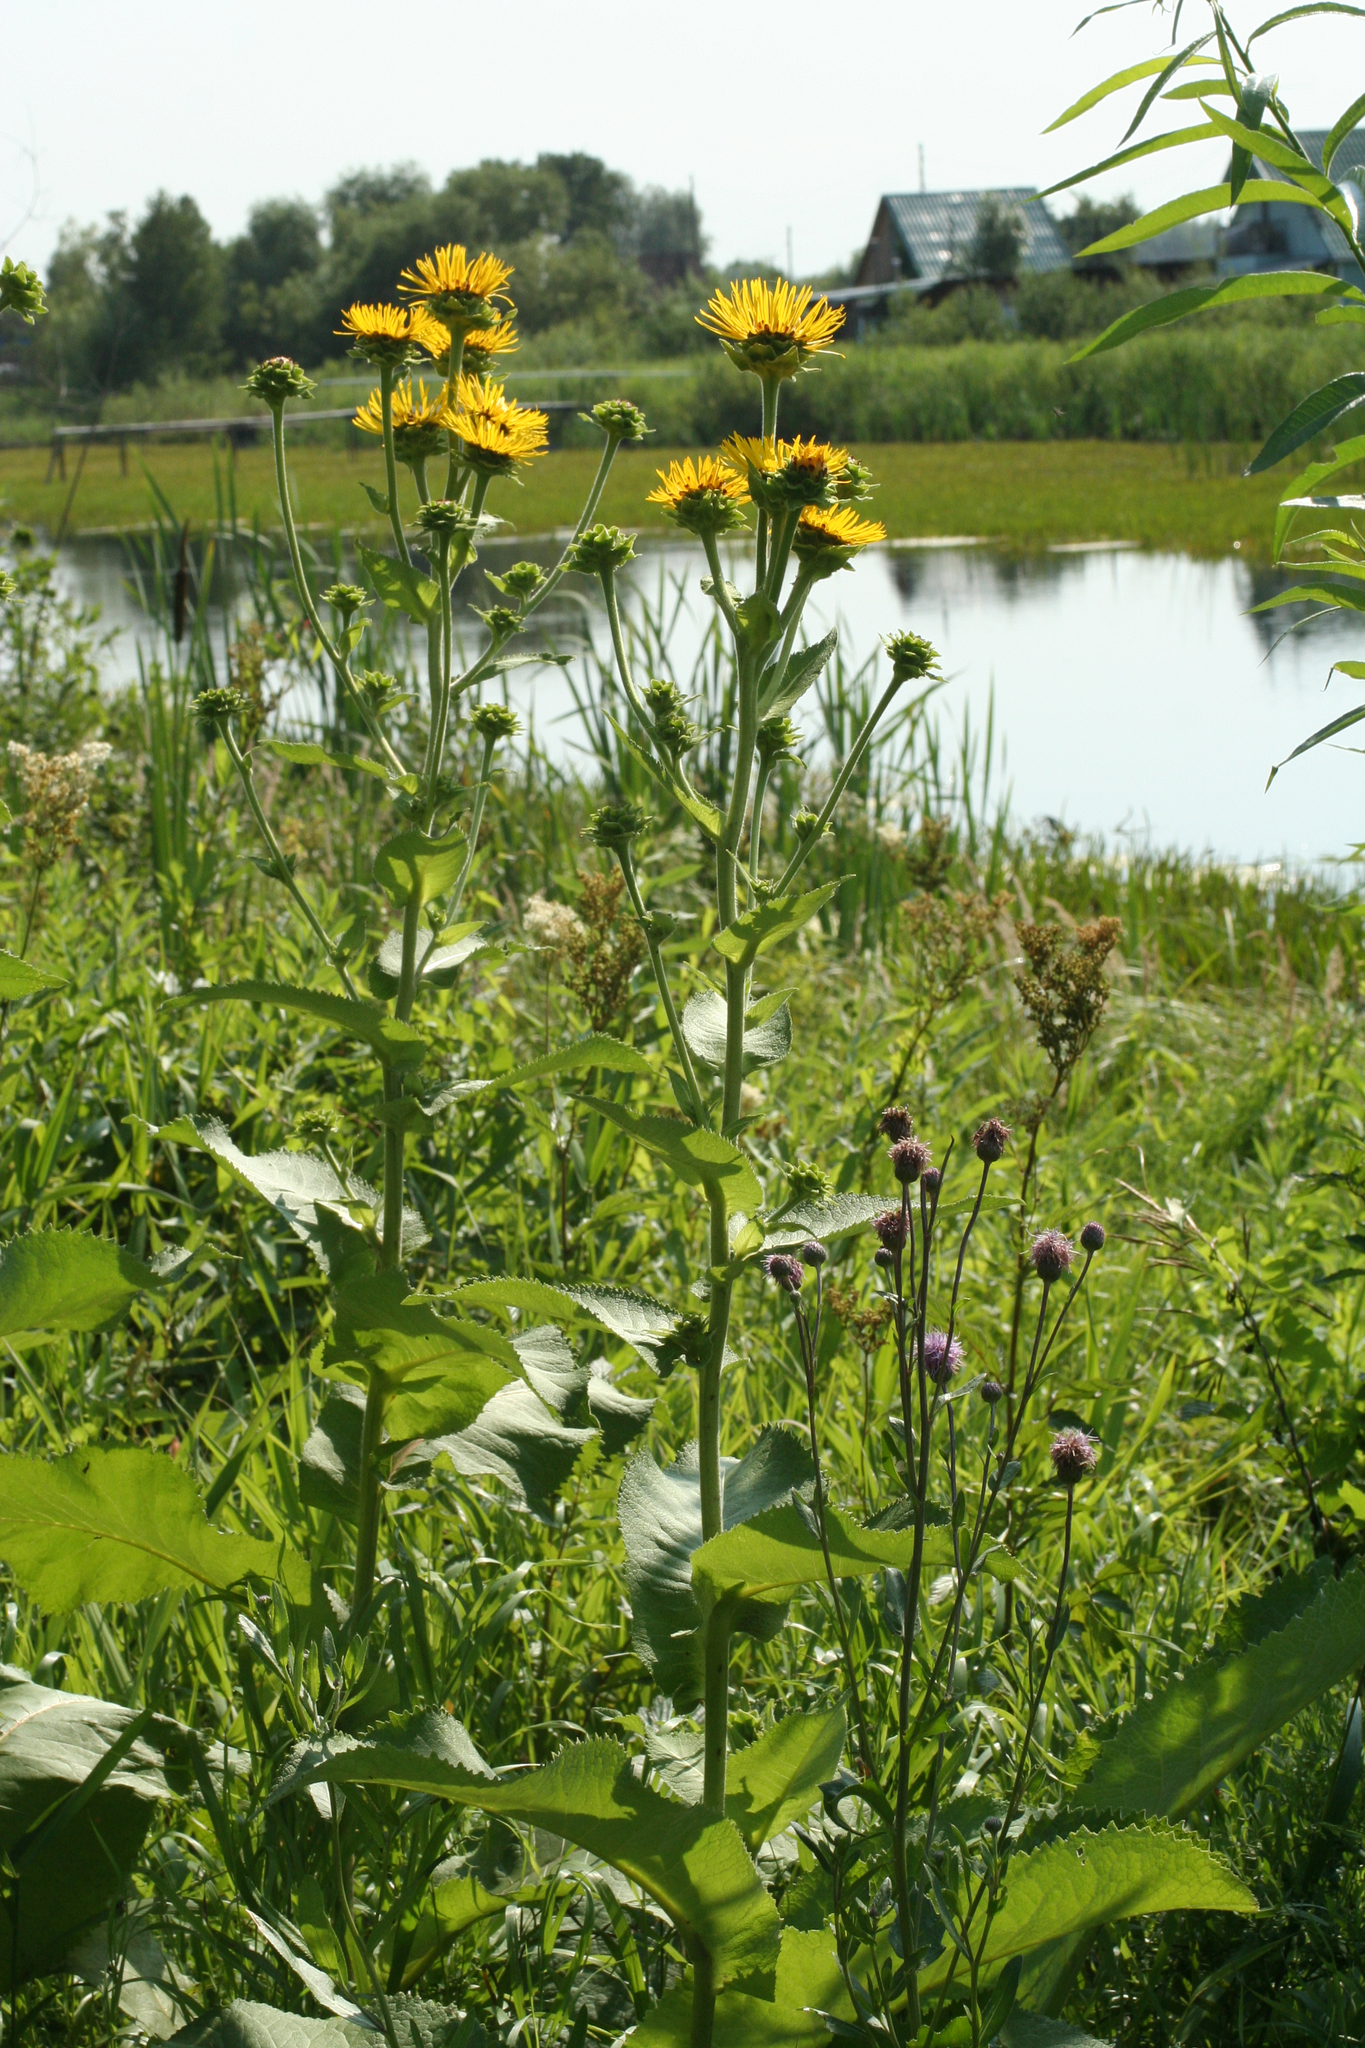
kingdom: Plantae
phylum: Tracheophyta
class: Magnoliopsida
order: Asterales
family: Asteraceae
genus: Inula
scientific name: Inula helenium
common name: Elecampane
